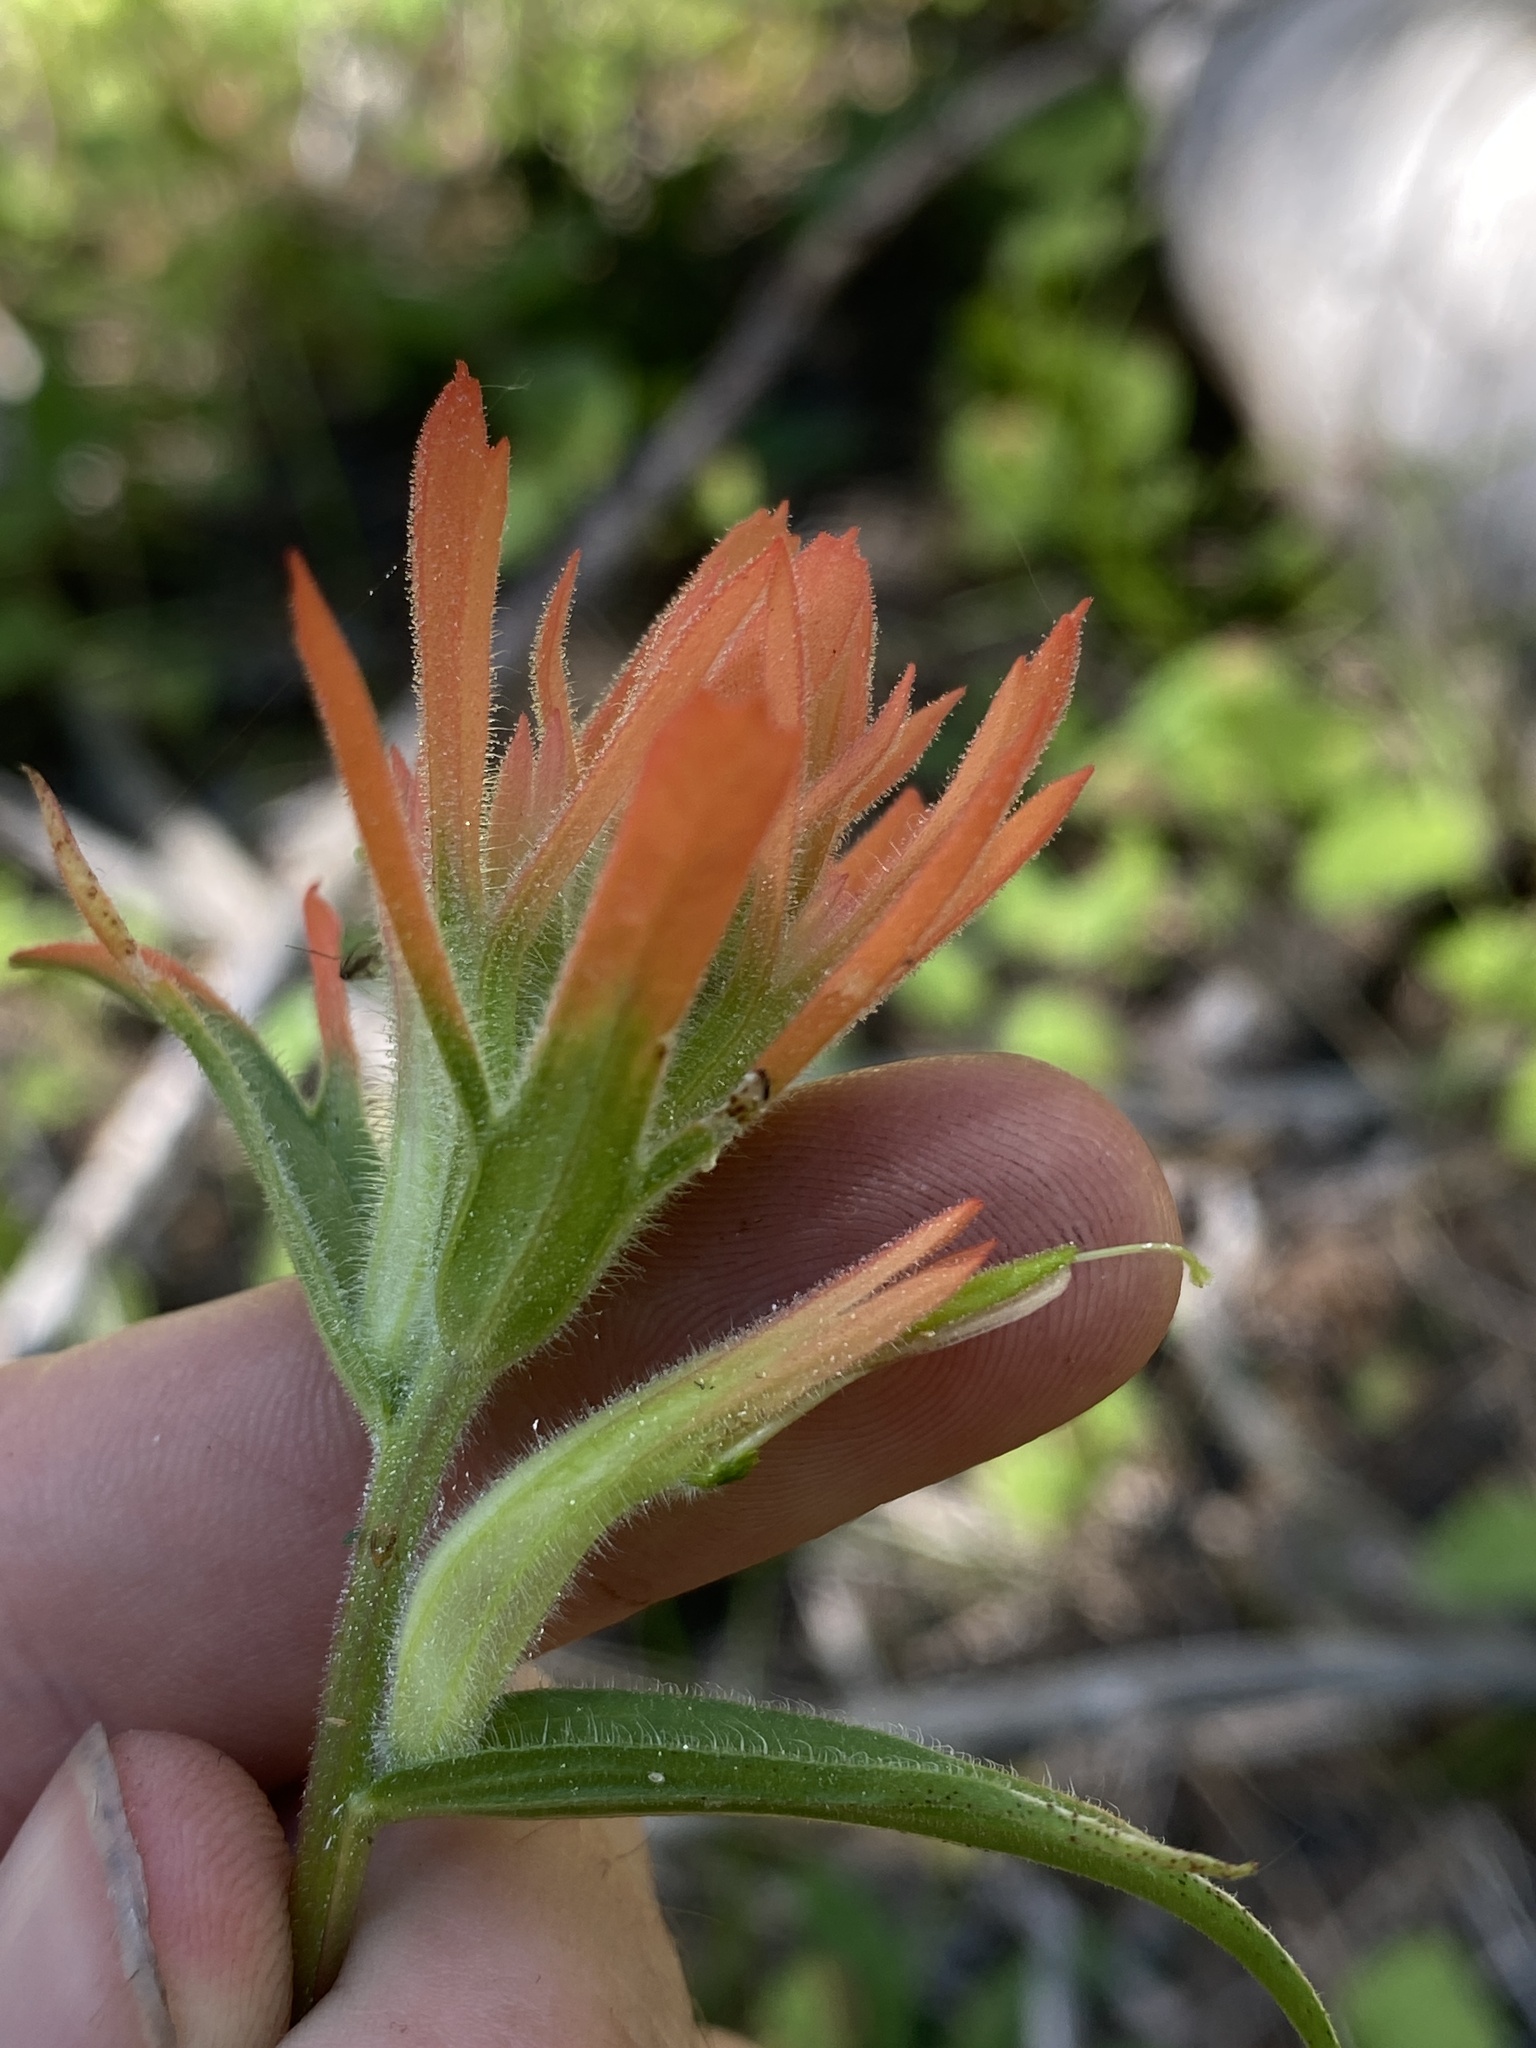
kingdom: Plantae
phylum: Tracheophyta
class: Magnoliopsida
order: Lamiales
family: Orobanchaceae
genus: Castilleja
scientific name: Castilleja miniata
